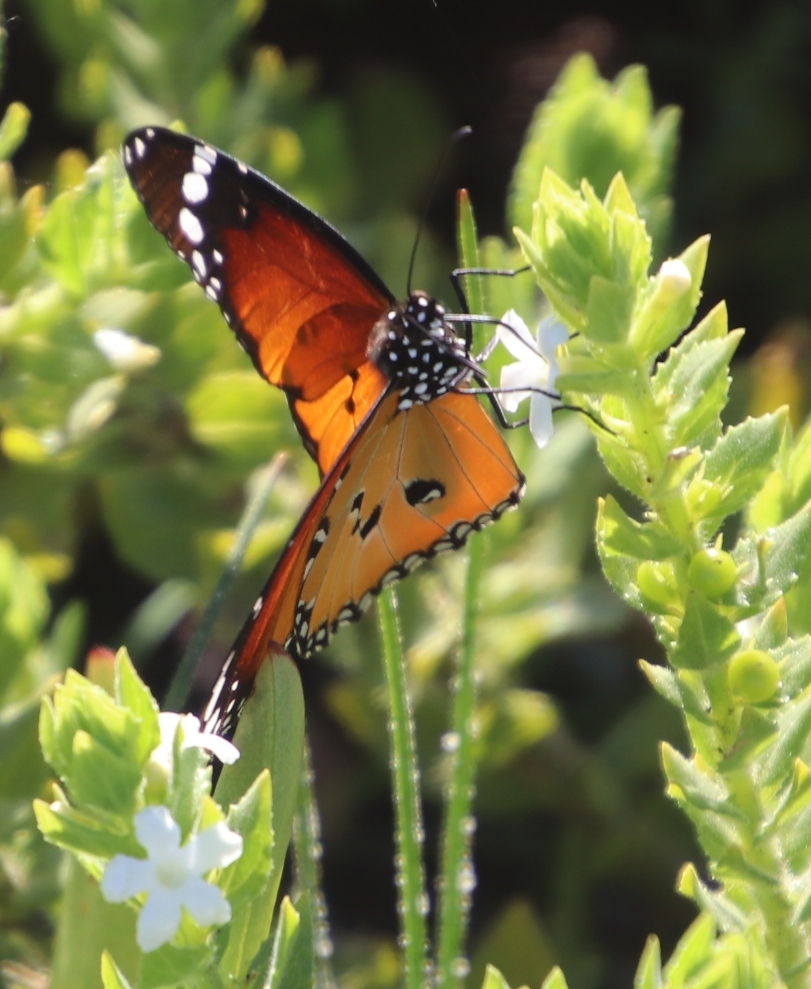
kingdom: Plantae
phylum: Tracheophyta
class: Magnoliopsida
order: Lamiales
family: Scrophulariaceae
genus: Oftia
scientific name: Oftia africana
